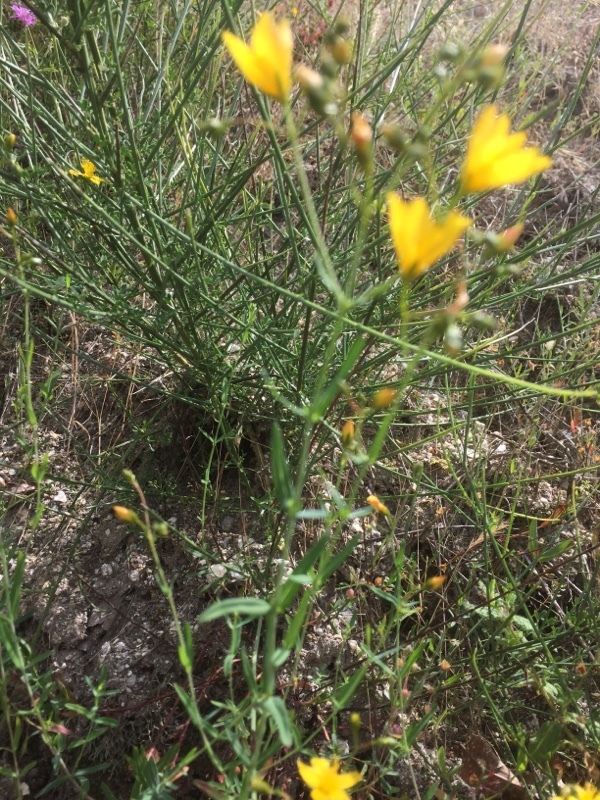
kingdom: Plantae
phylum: Tracheophyta
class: Magnoliopsida
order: Malpighiales
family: Hypericaceae
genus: Hypericum
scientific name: Hypericum linariifolium
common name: Toadflax-leaved st. john's-wort
